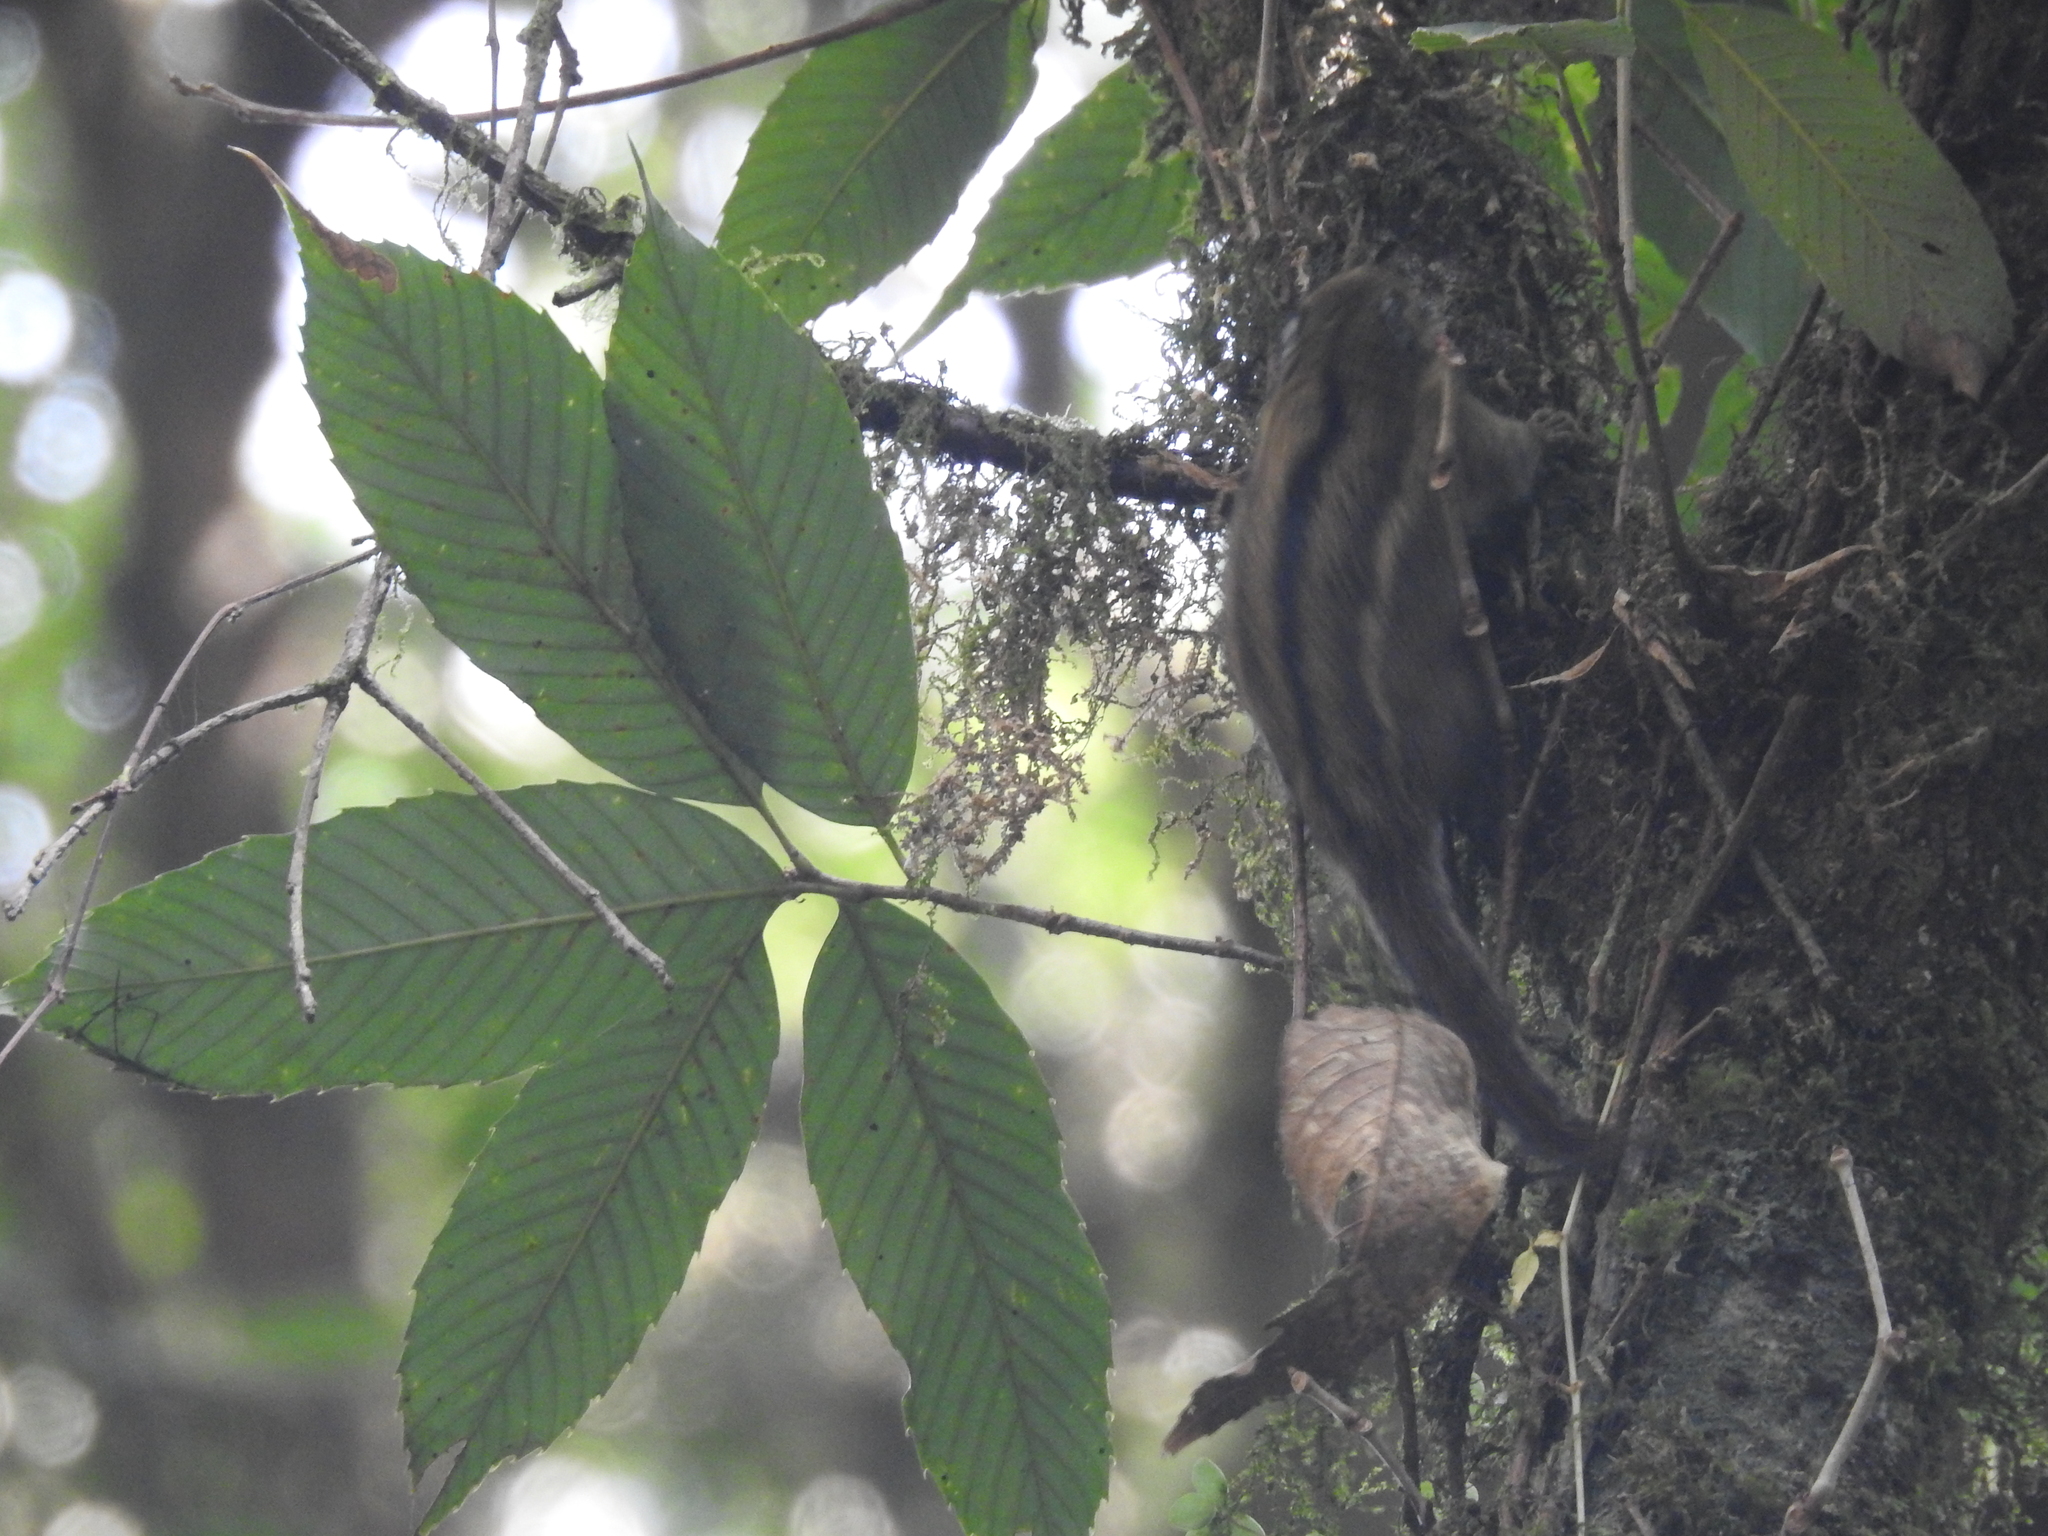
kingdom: Animalia
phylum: Chordata
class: Mammalia
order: Rodentia
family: Sciuridae
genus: Tamiops
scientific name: Tamiops mcclellandii
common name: Himalayan striped squirrel
